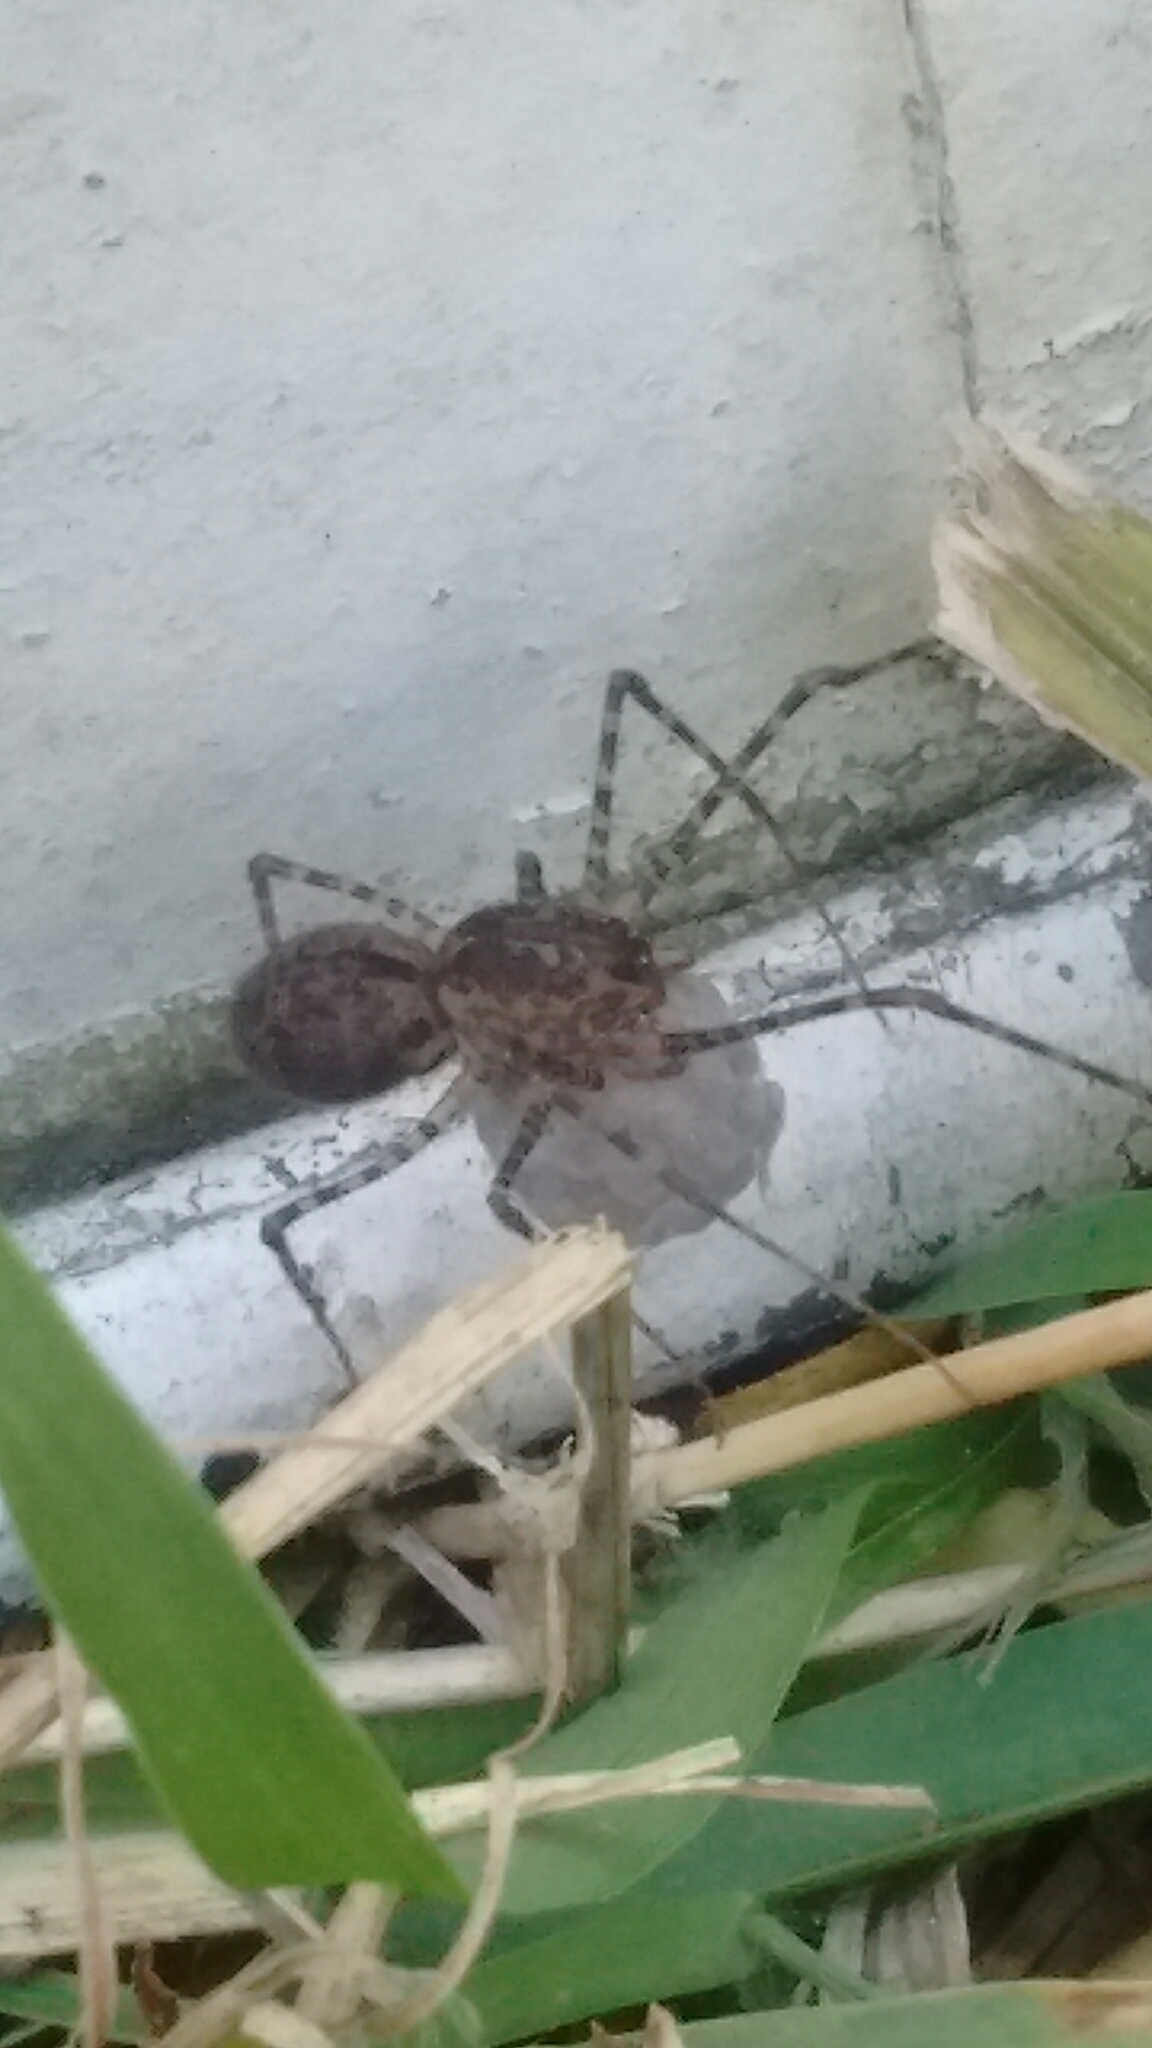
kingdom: Animalia
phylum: Arthropoda
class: Arachnida
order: Araneae
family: Scytodidae
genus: Scytodes
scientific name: Scytodes globula
